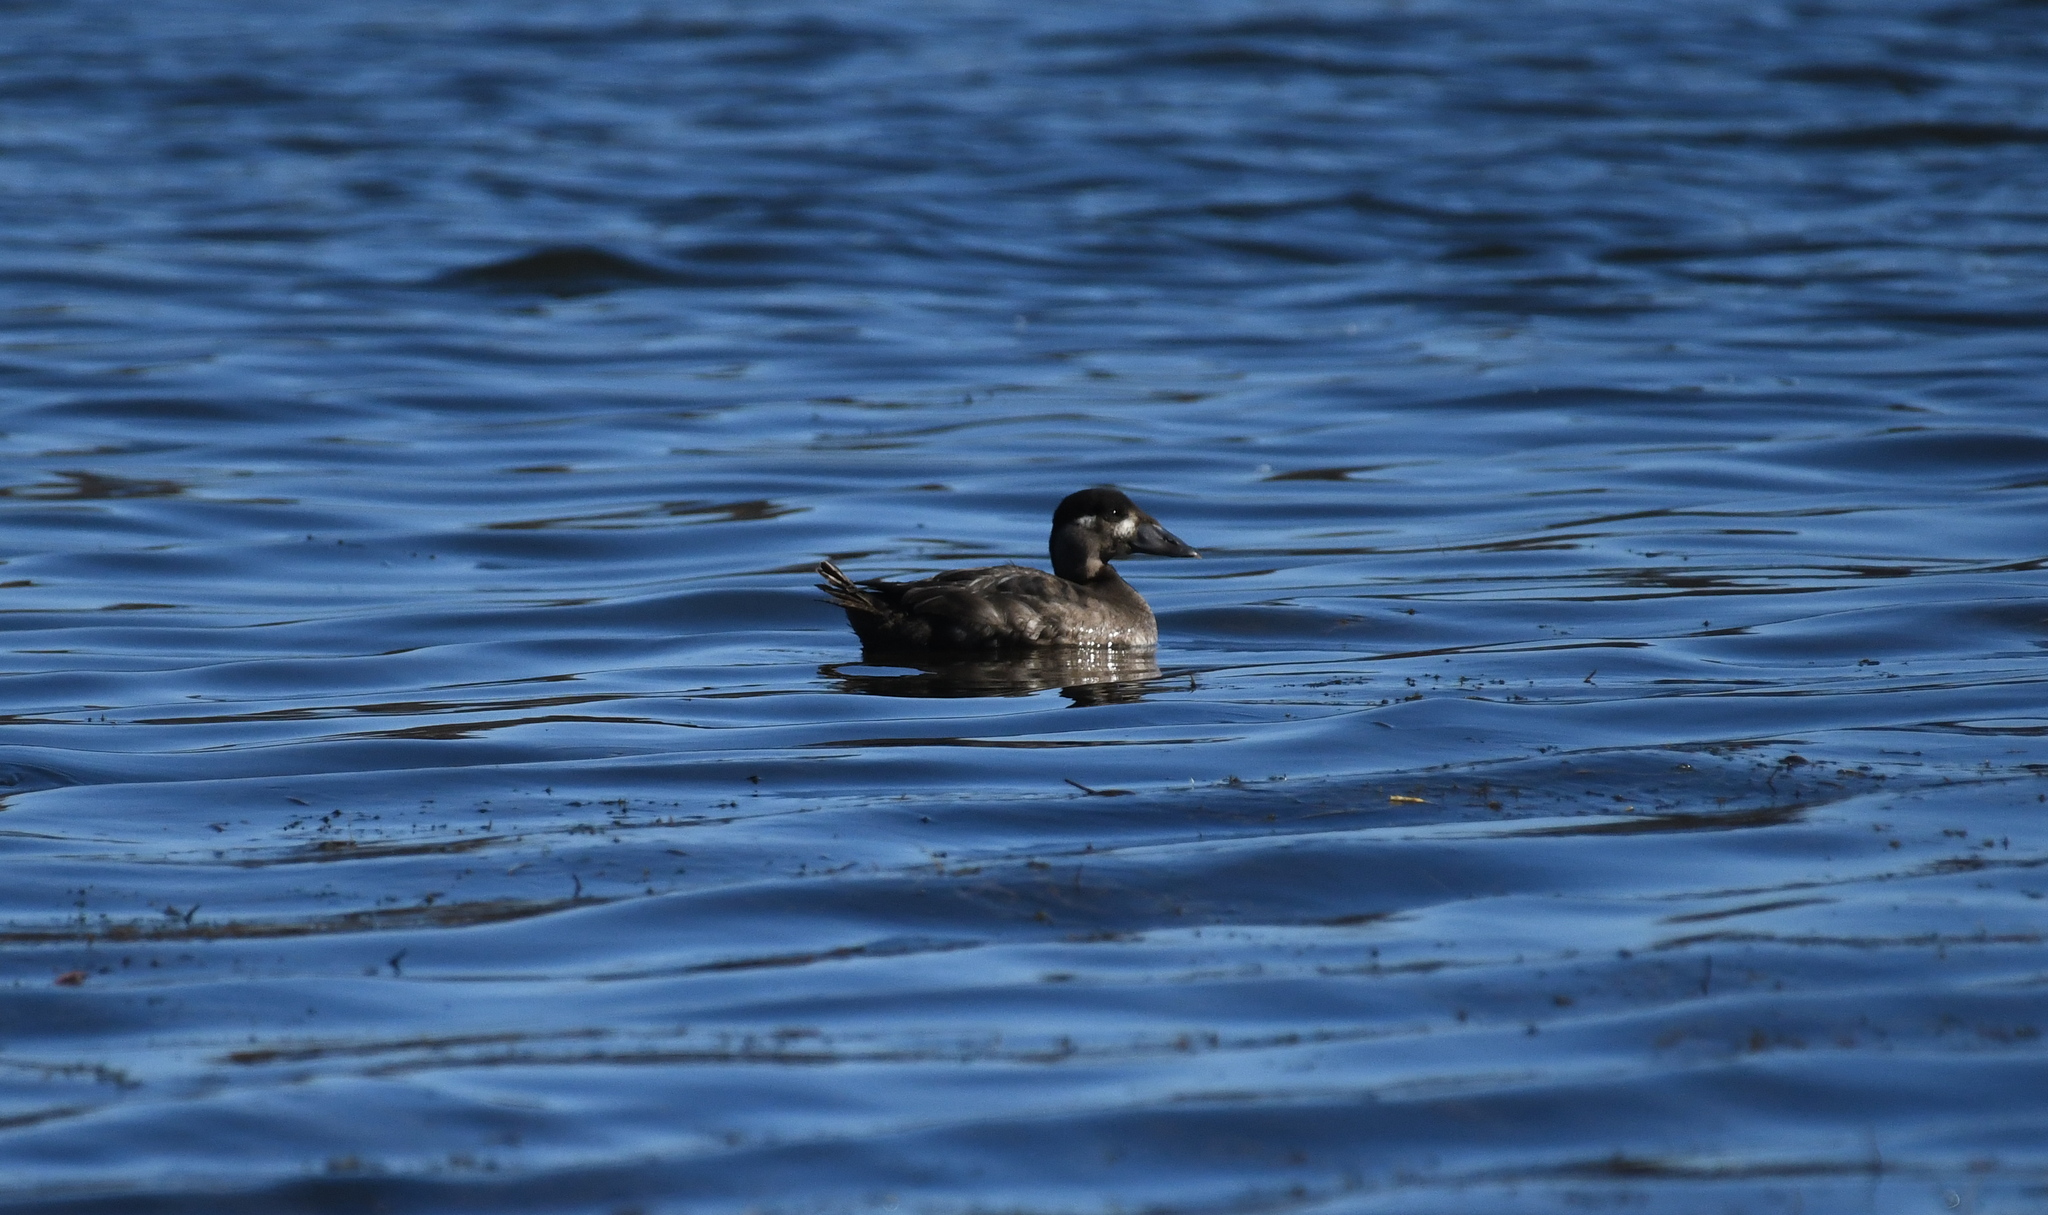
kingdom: Animalia
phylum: Chordata
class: Aves
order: Anseriformes
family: Anatidae
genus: Melanitta
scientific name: Melanitta perspicillata
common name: Surf scoter
